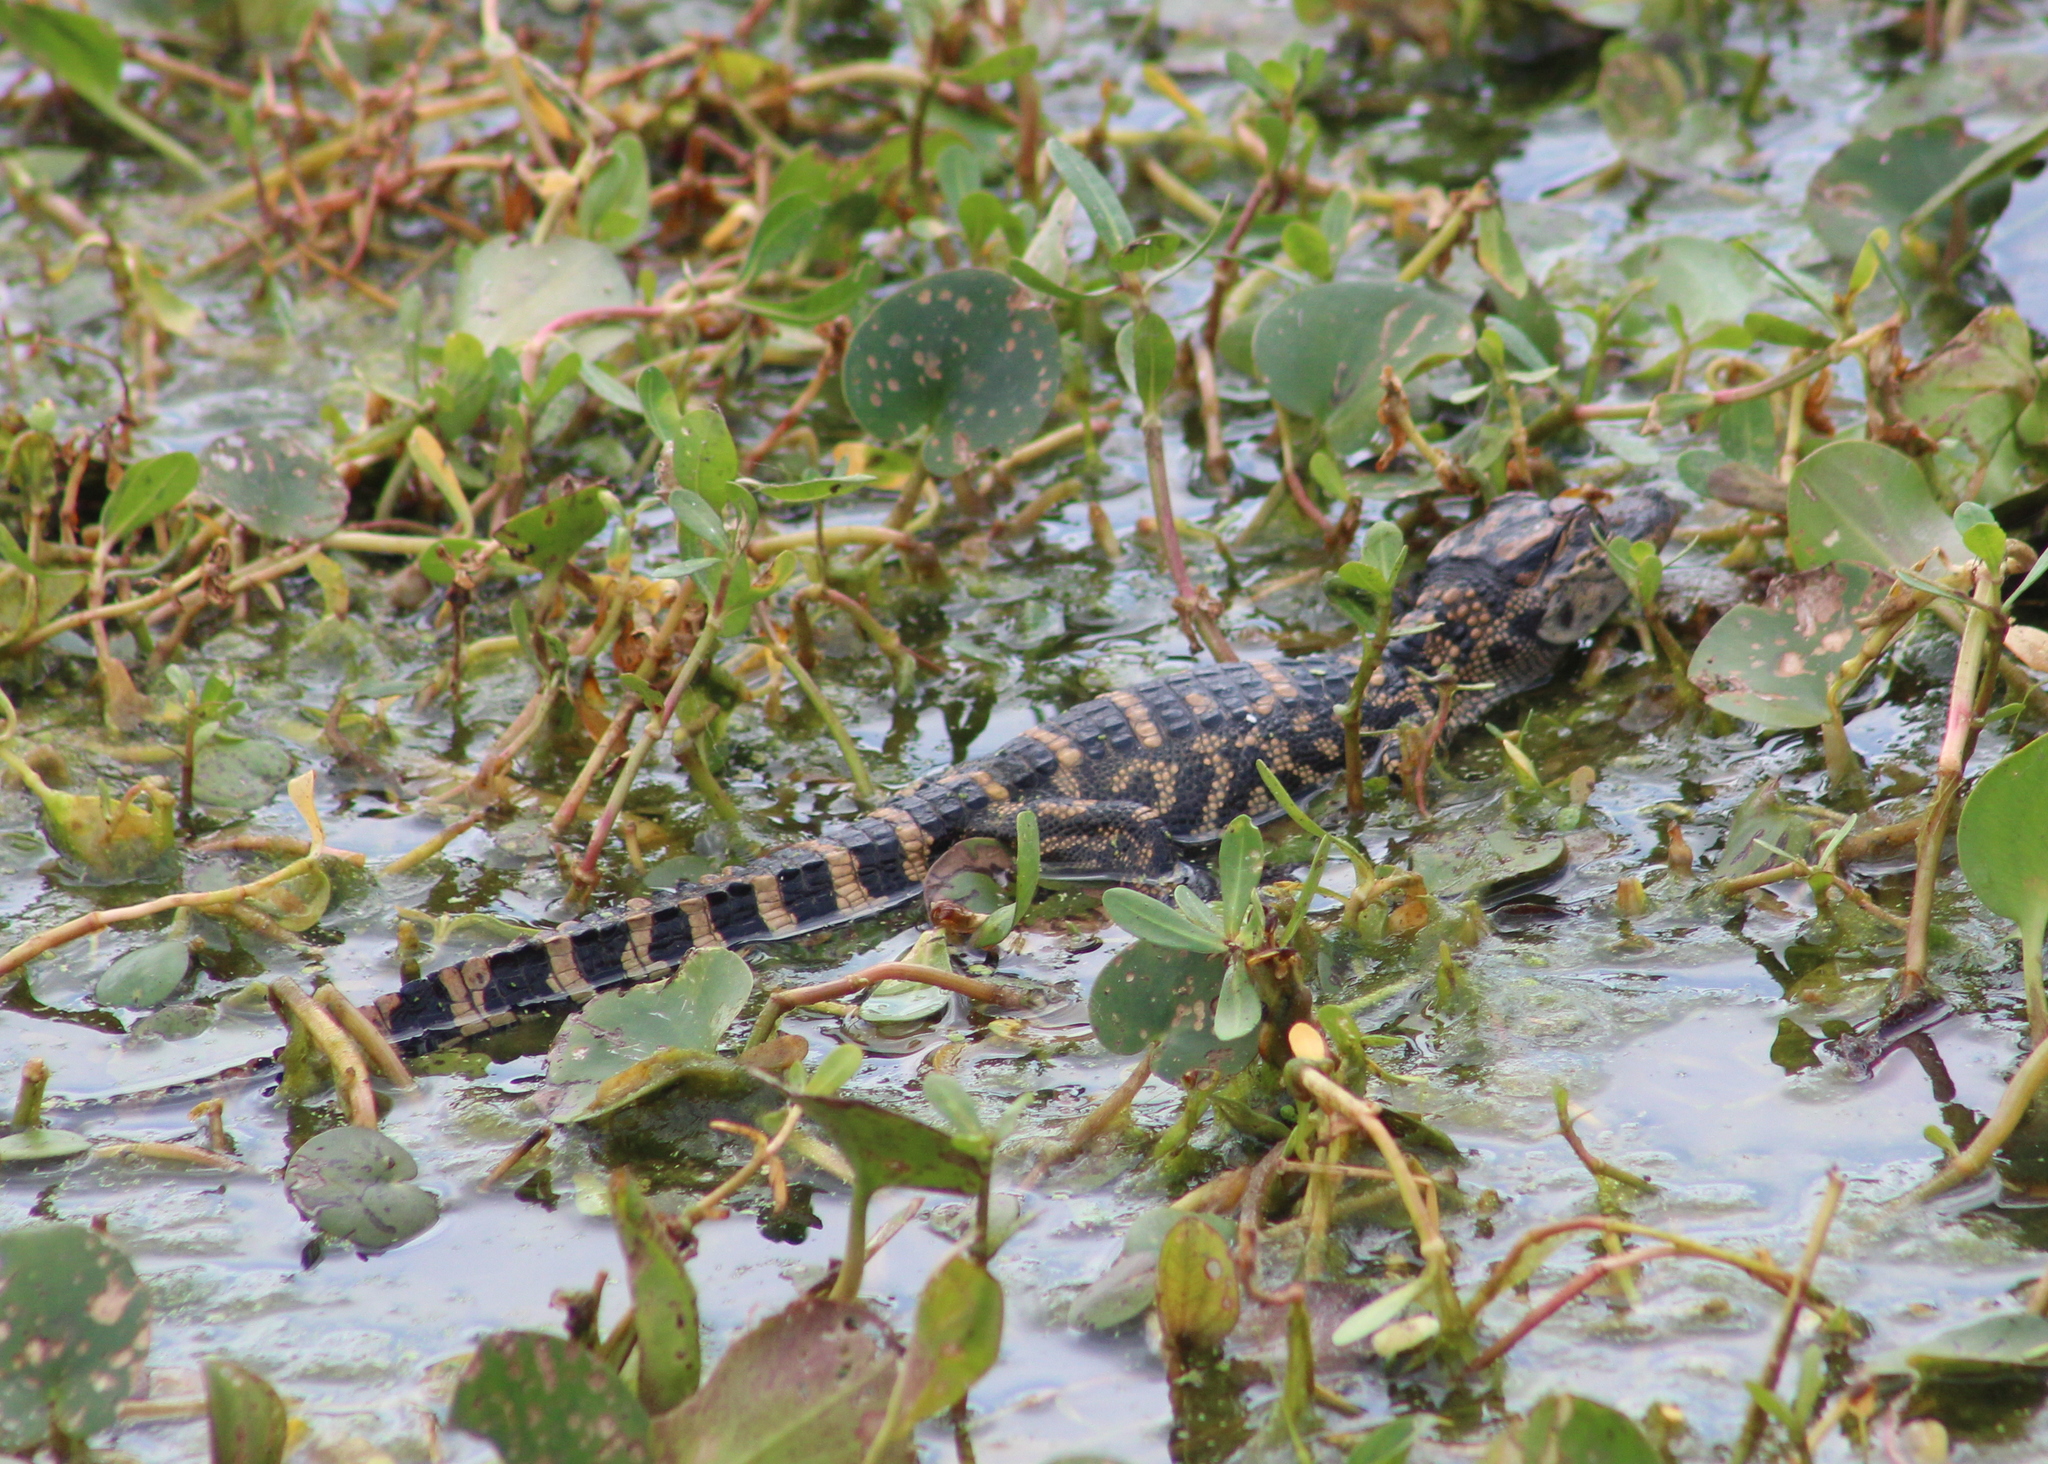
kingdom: Animalia
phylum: Chordata
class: Crocodylia
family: Alligatoridae
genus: Alligator
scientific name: Alligator mississippiensis
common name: American alligator
